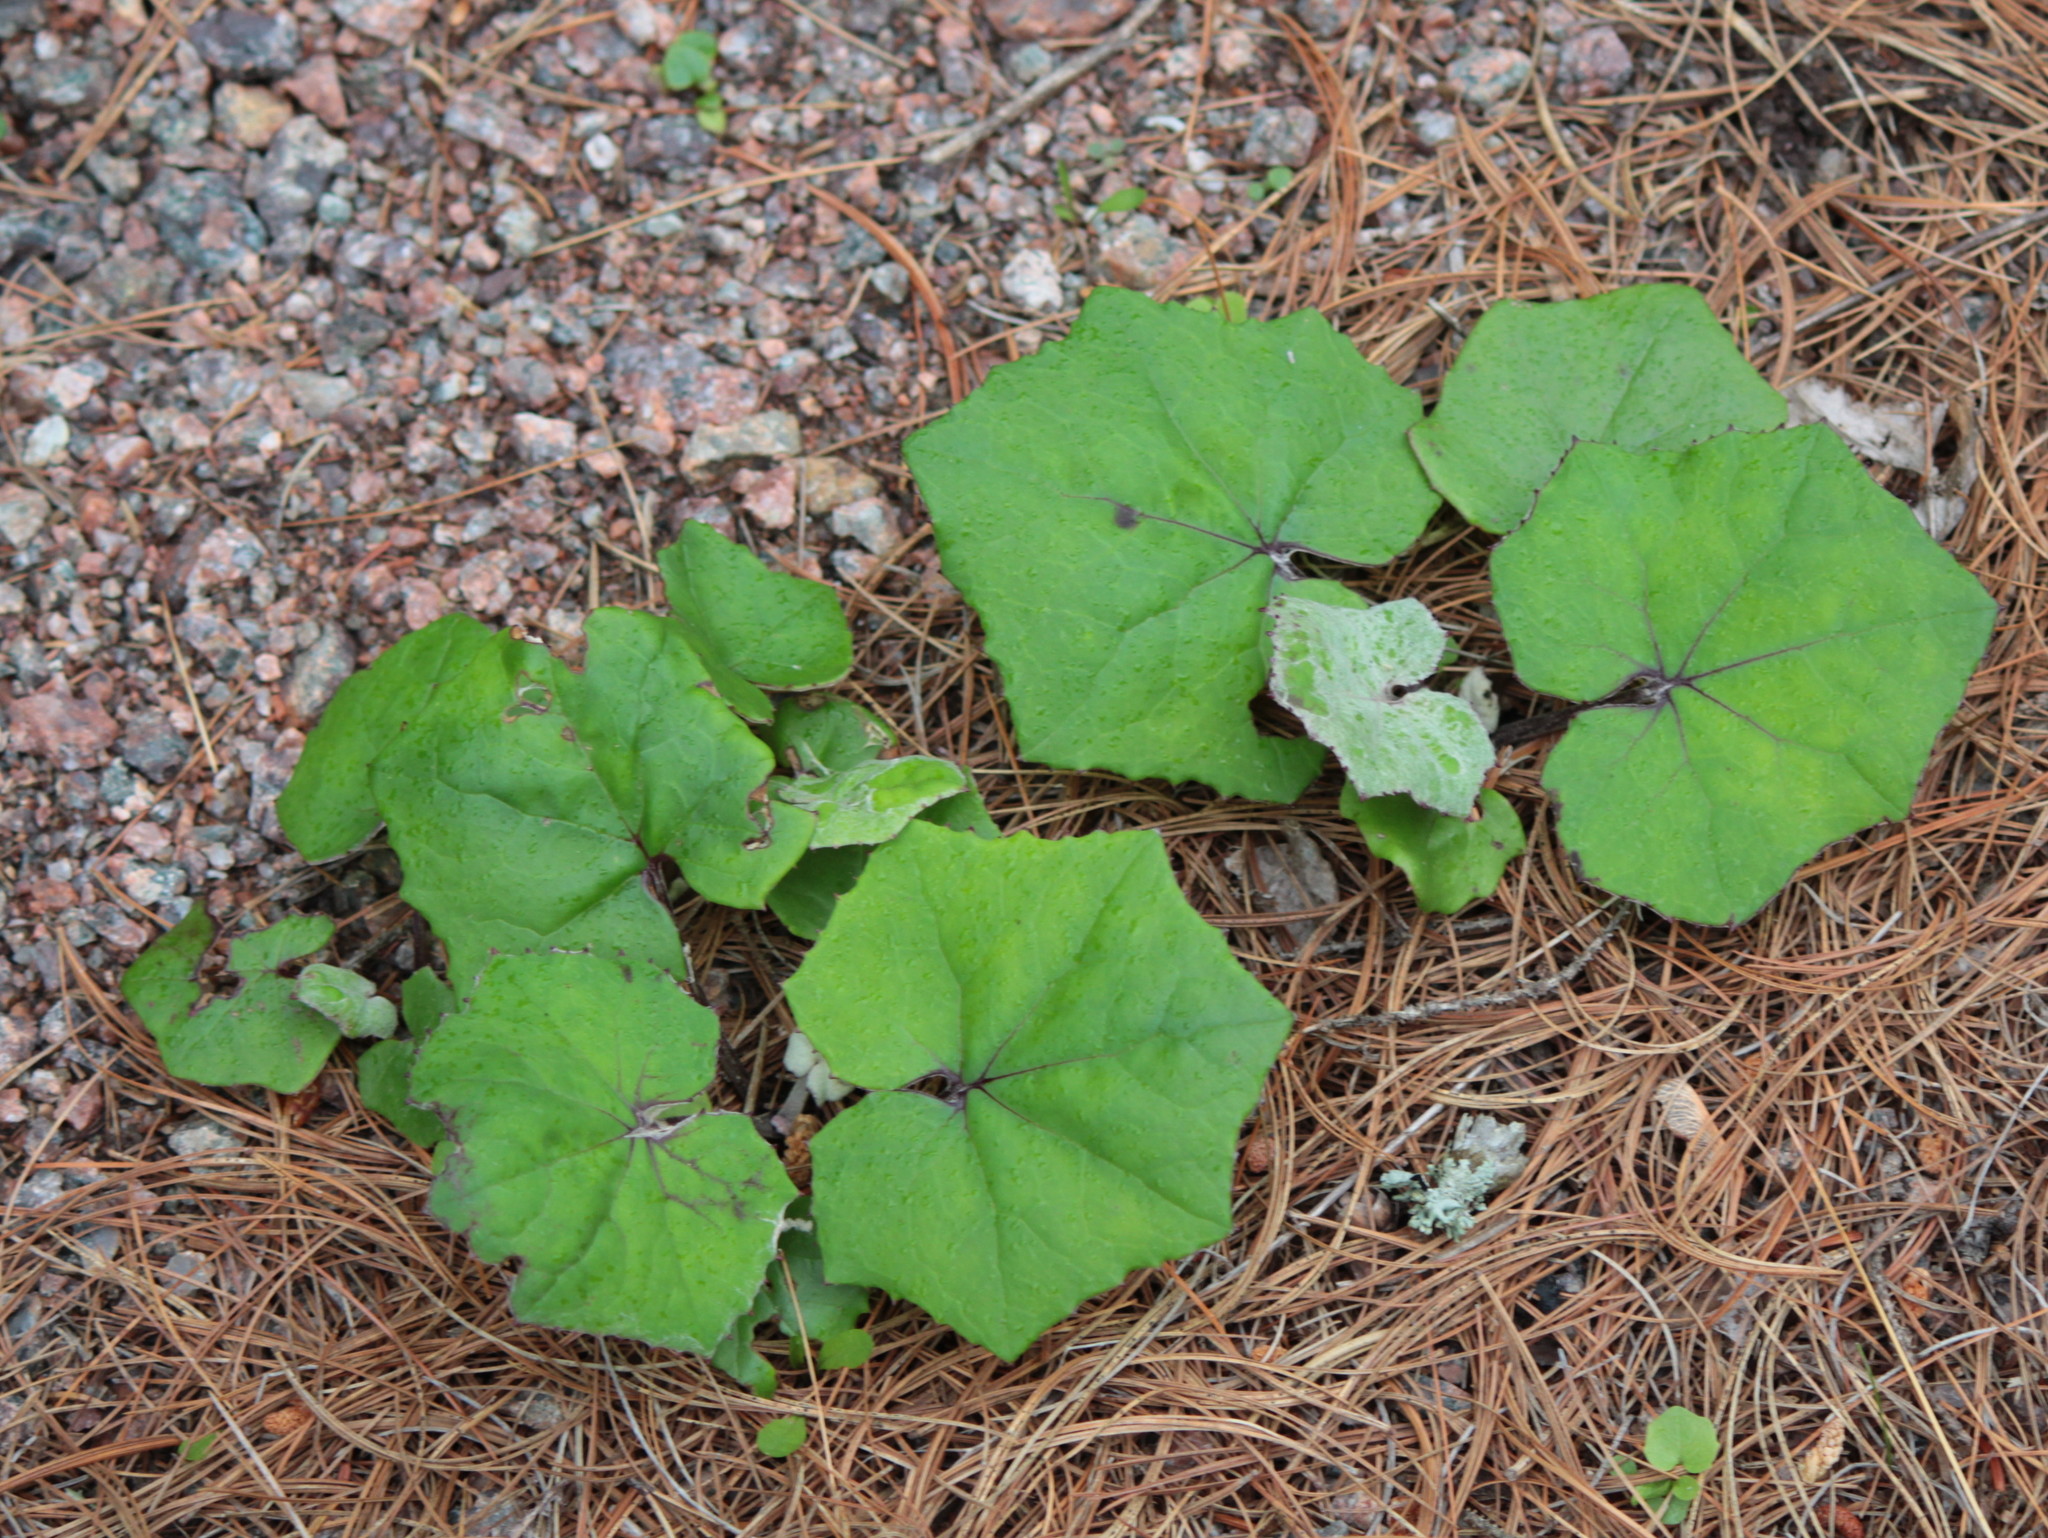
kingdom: Plantae
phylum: Tracheophyta
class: Magnoliopsida
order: Asterales
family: Asteraceae
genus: Tussilago
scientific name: Tussilago farfara
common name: Coltsfoot
